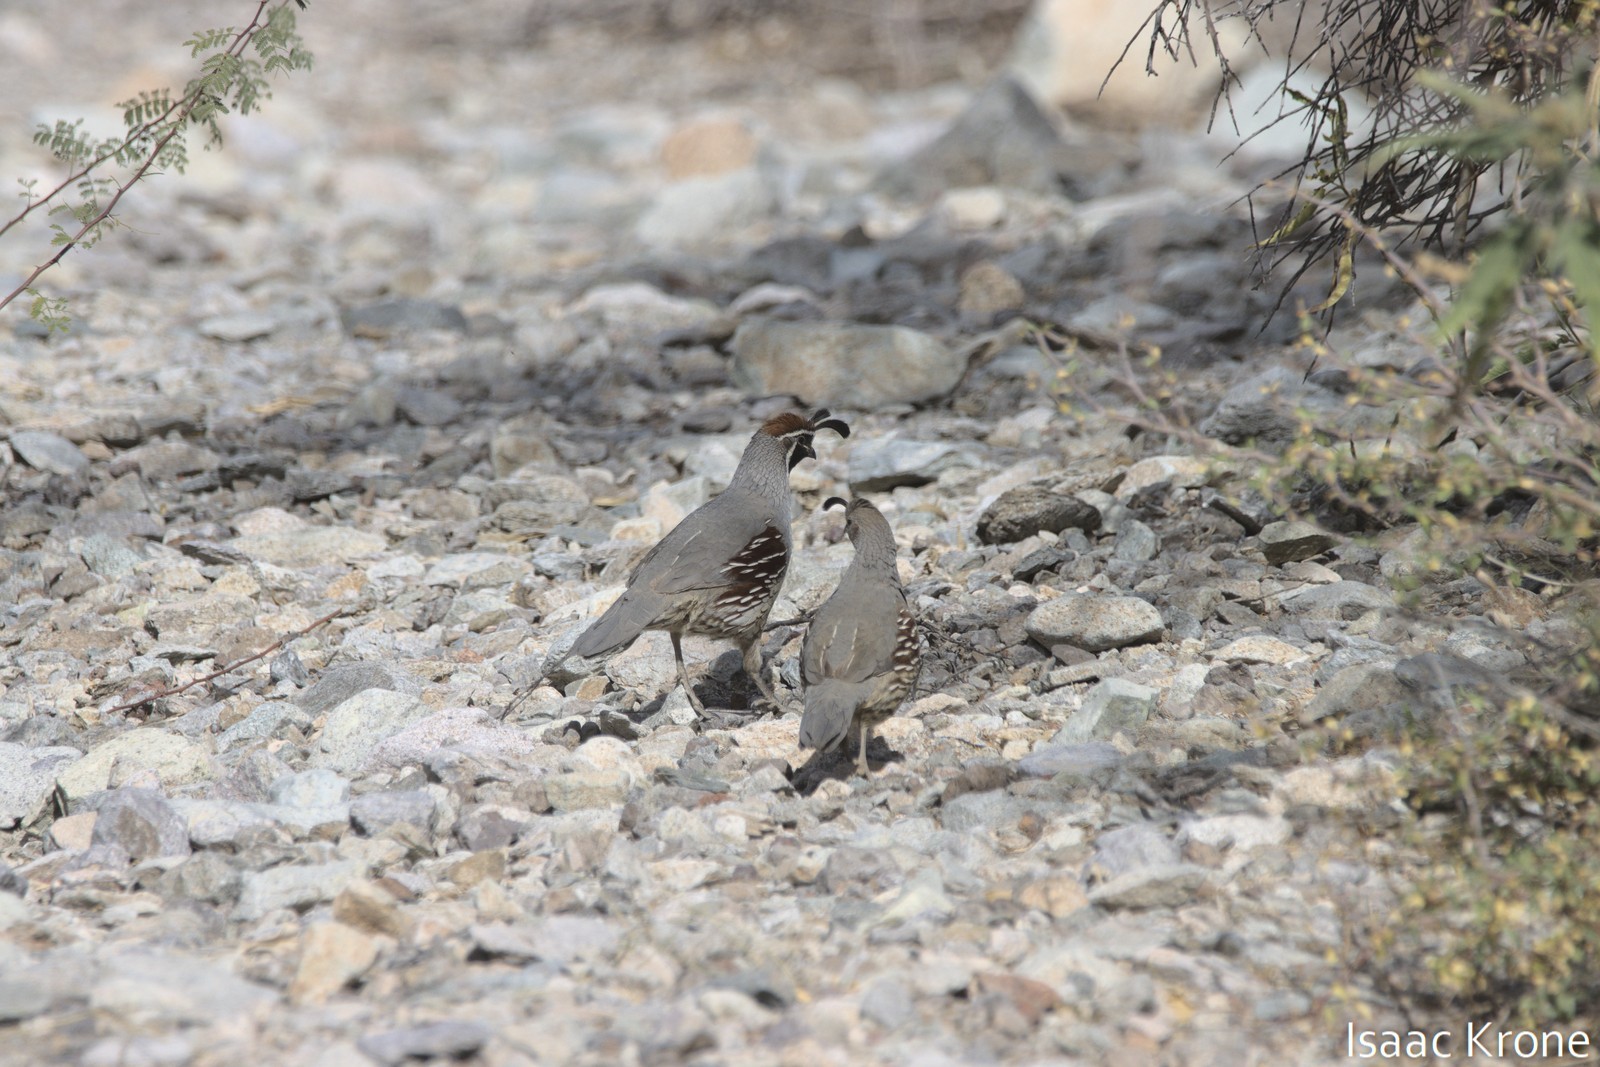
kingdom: Animalia
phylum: Chordata
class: Aves
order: Galliformes
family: Odontophoridae
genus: Callipepla
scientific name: Callipepla gambelii
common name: Gambel's quail
